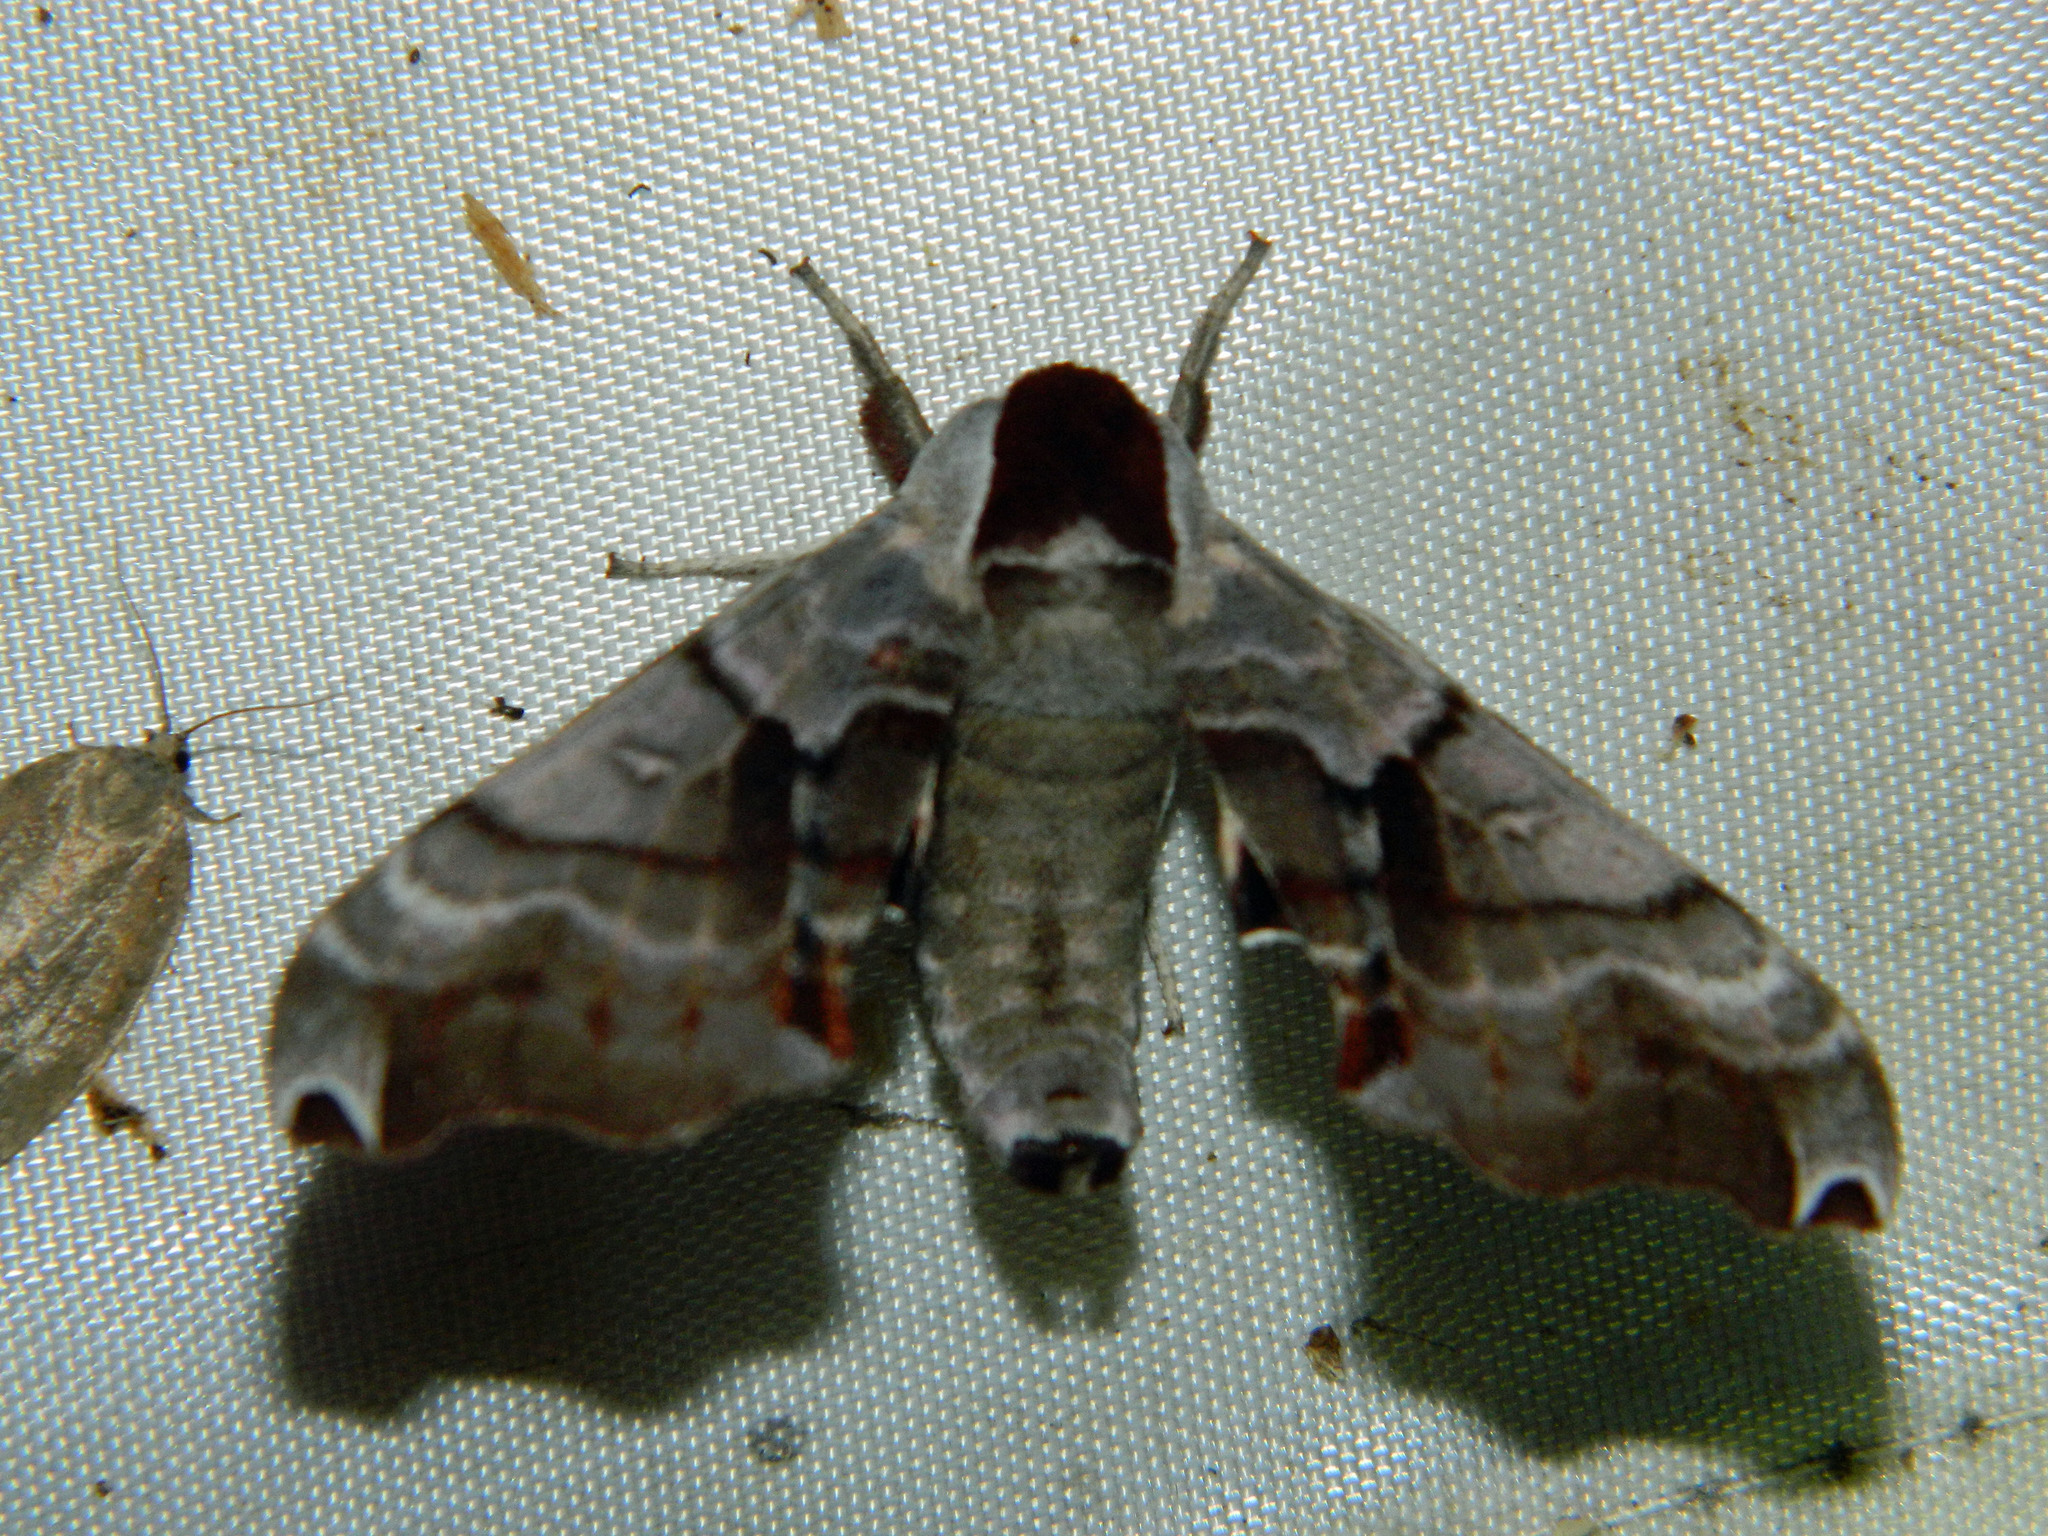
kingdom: Animalia
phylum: Arthropoda
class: Insecta
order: Lepidoptera
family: Sphingidae
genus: Smerinthus
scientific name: Smerinthus jamaicensis
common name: Twin spotted sphinx
